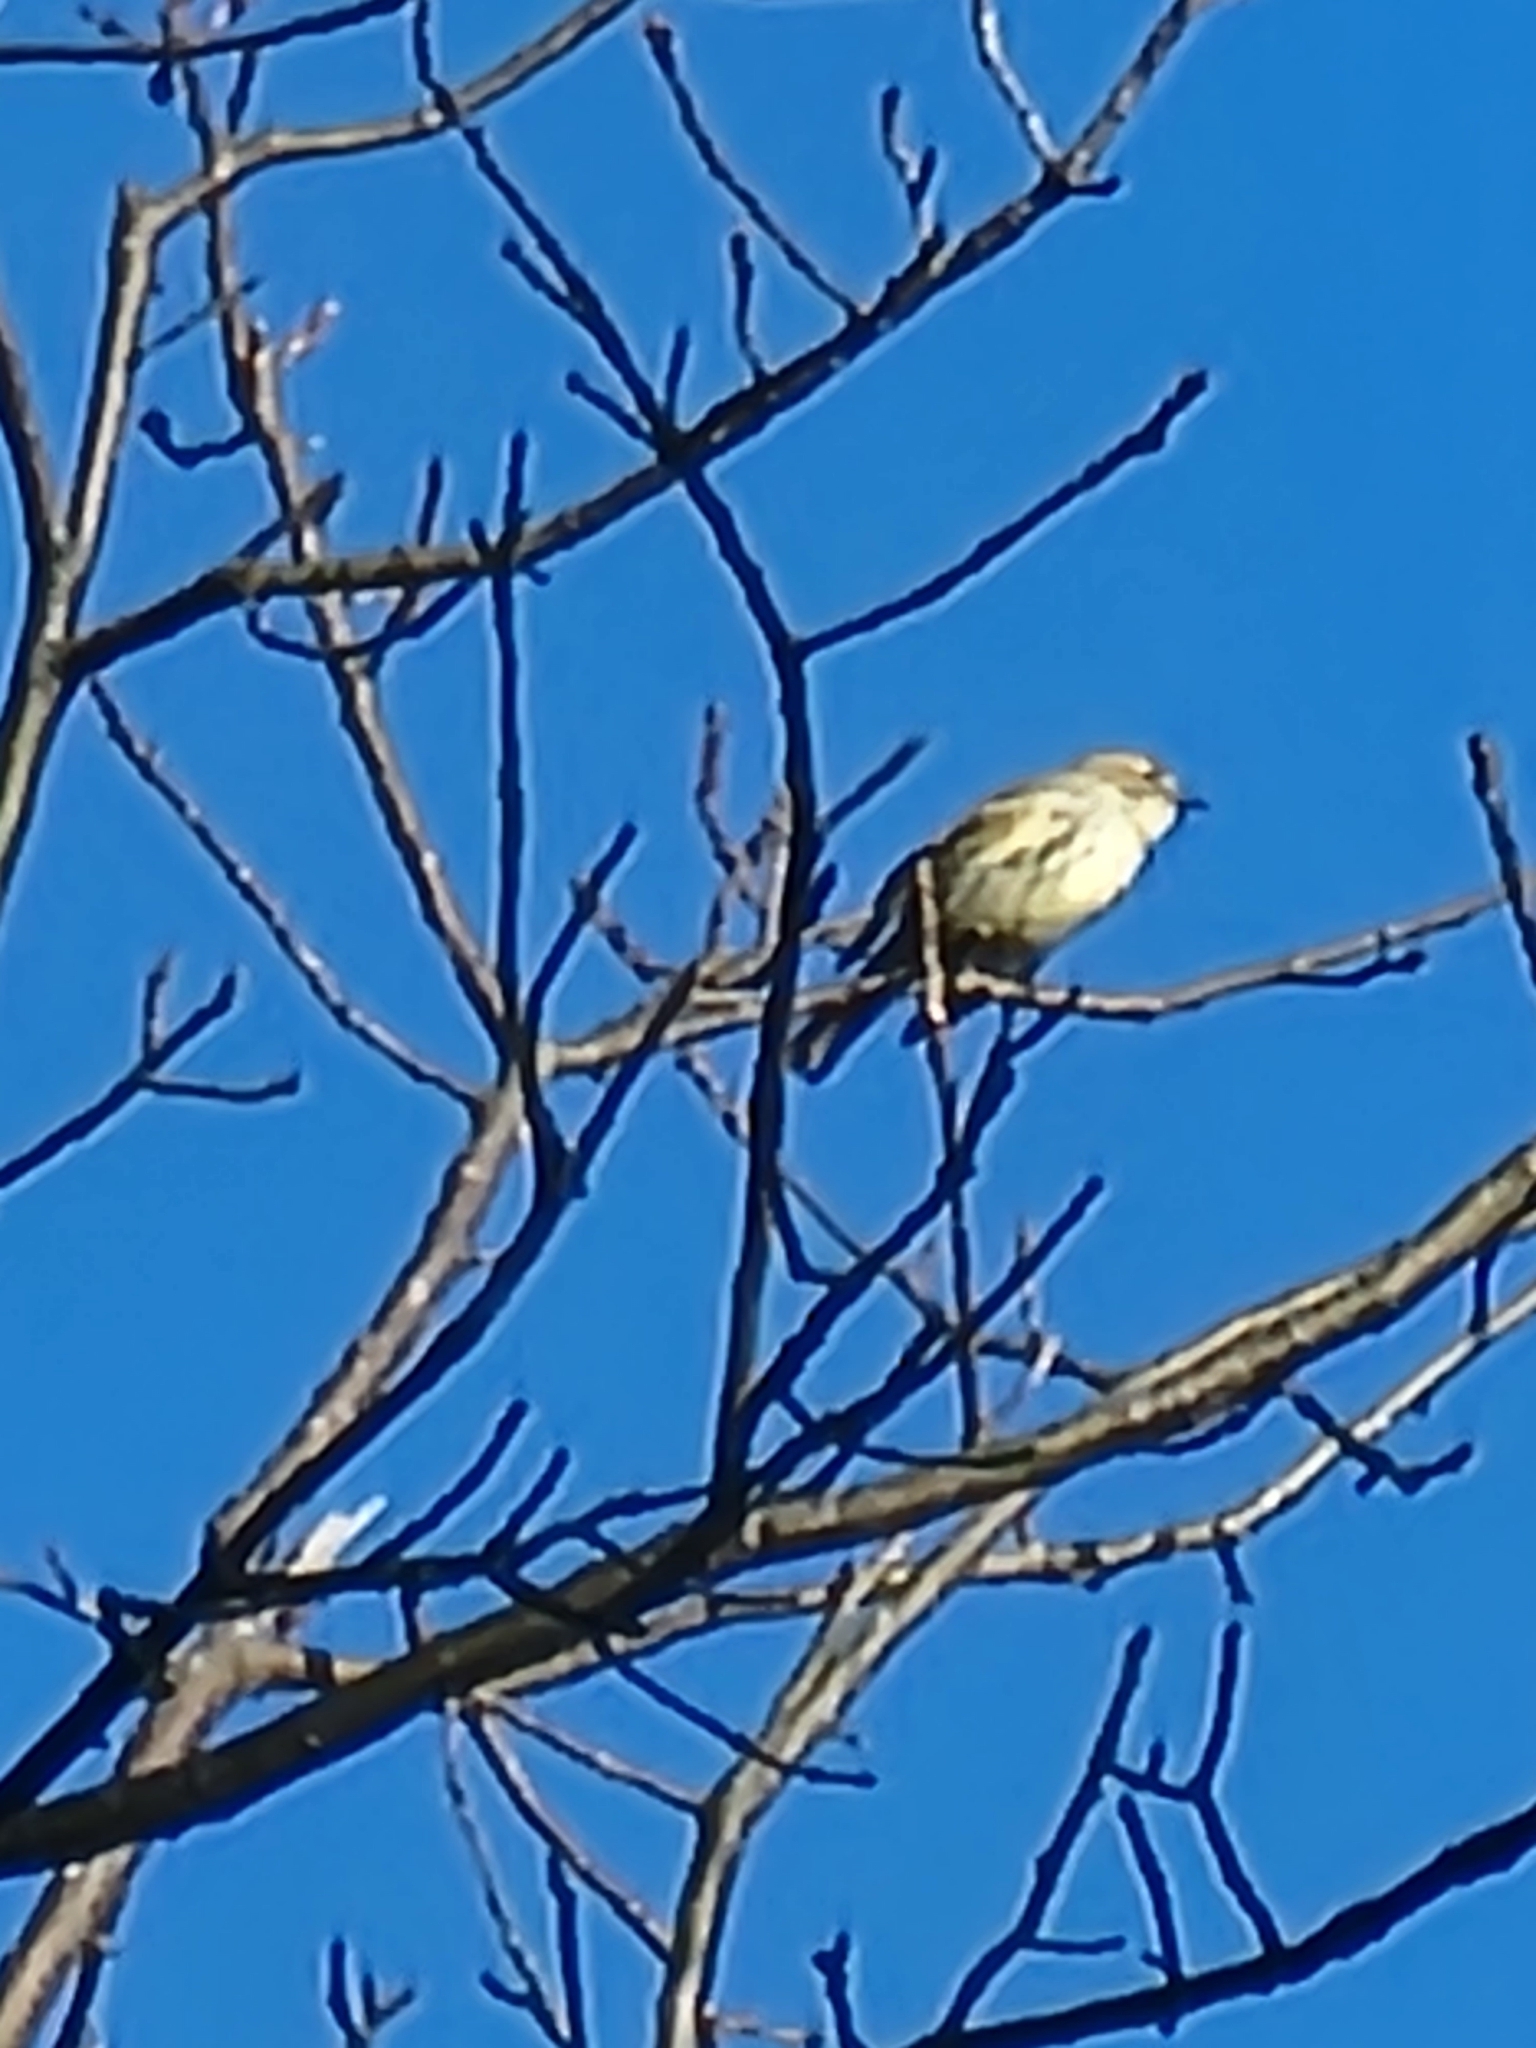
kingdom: Animalia
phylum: Chordata
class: Aves
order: Passeriformes
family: Parulidae
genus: Setophaga
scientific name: Setophaga coronata
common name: Myrtle warbler
